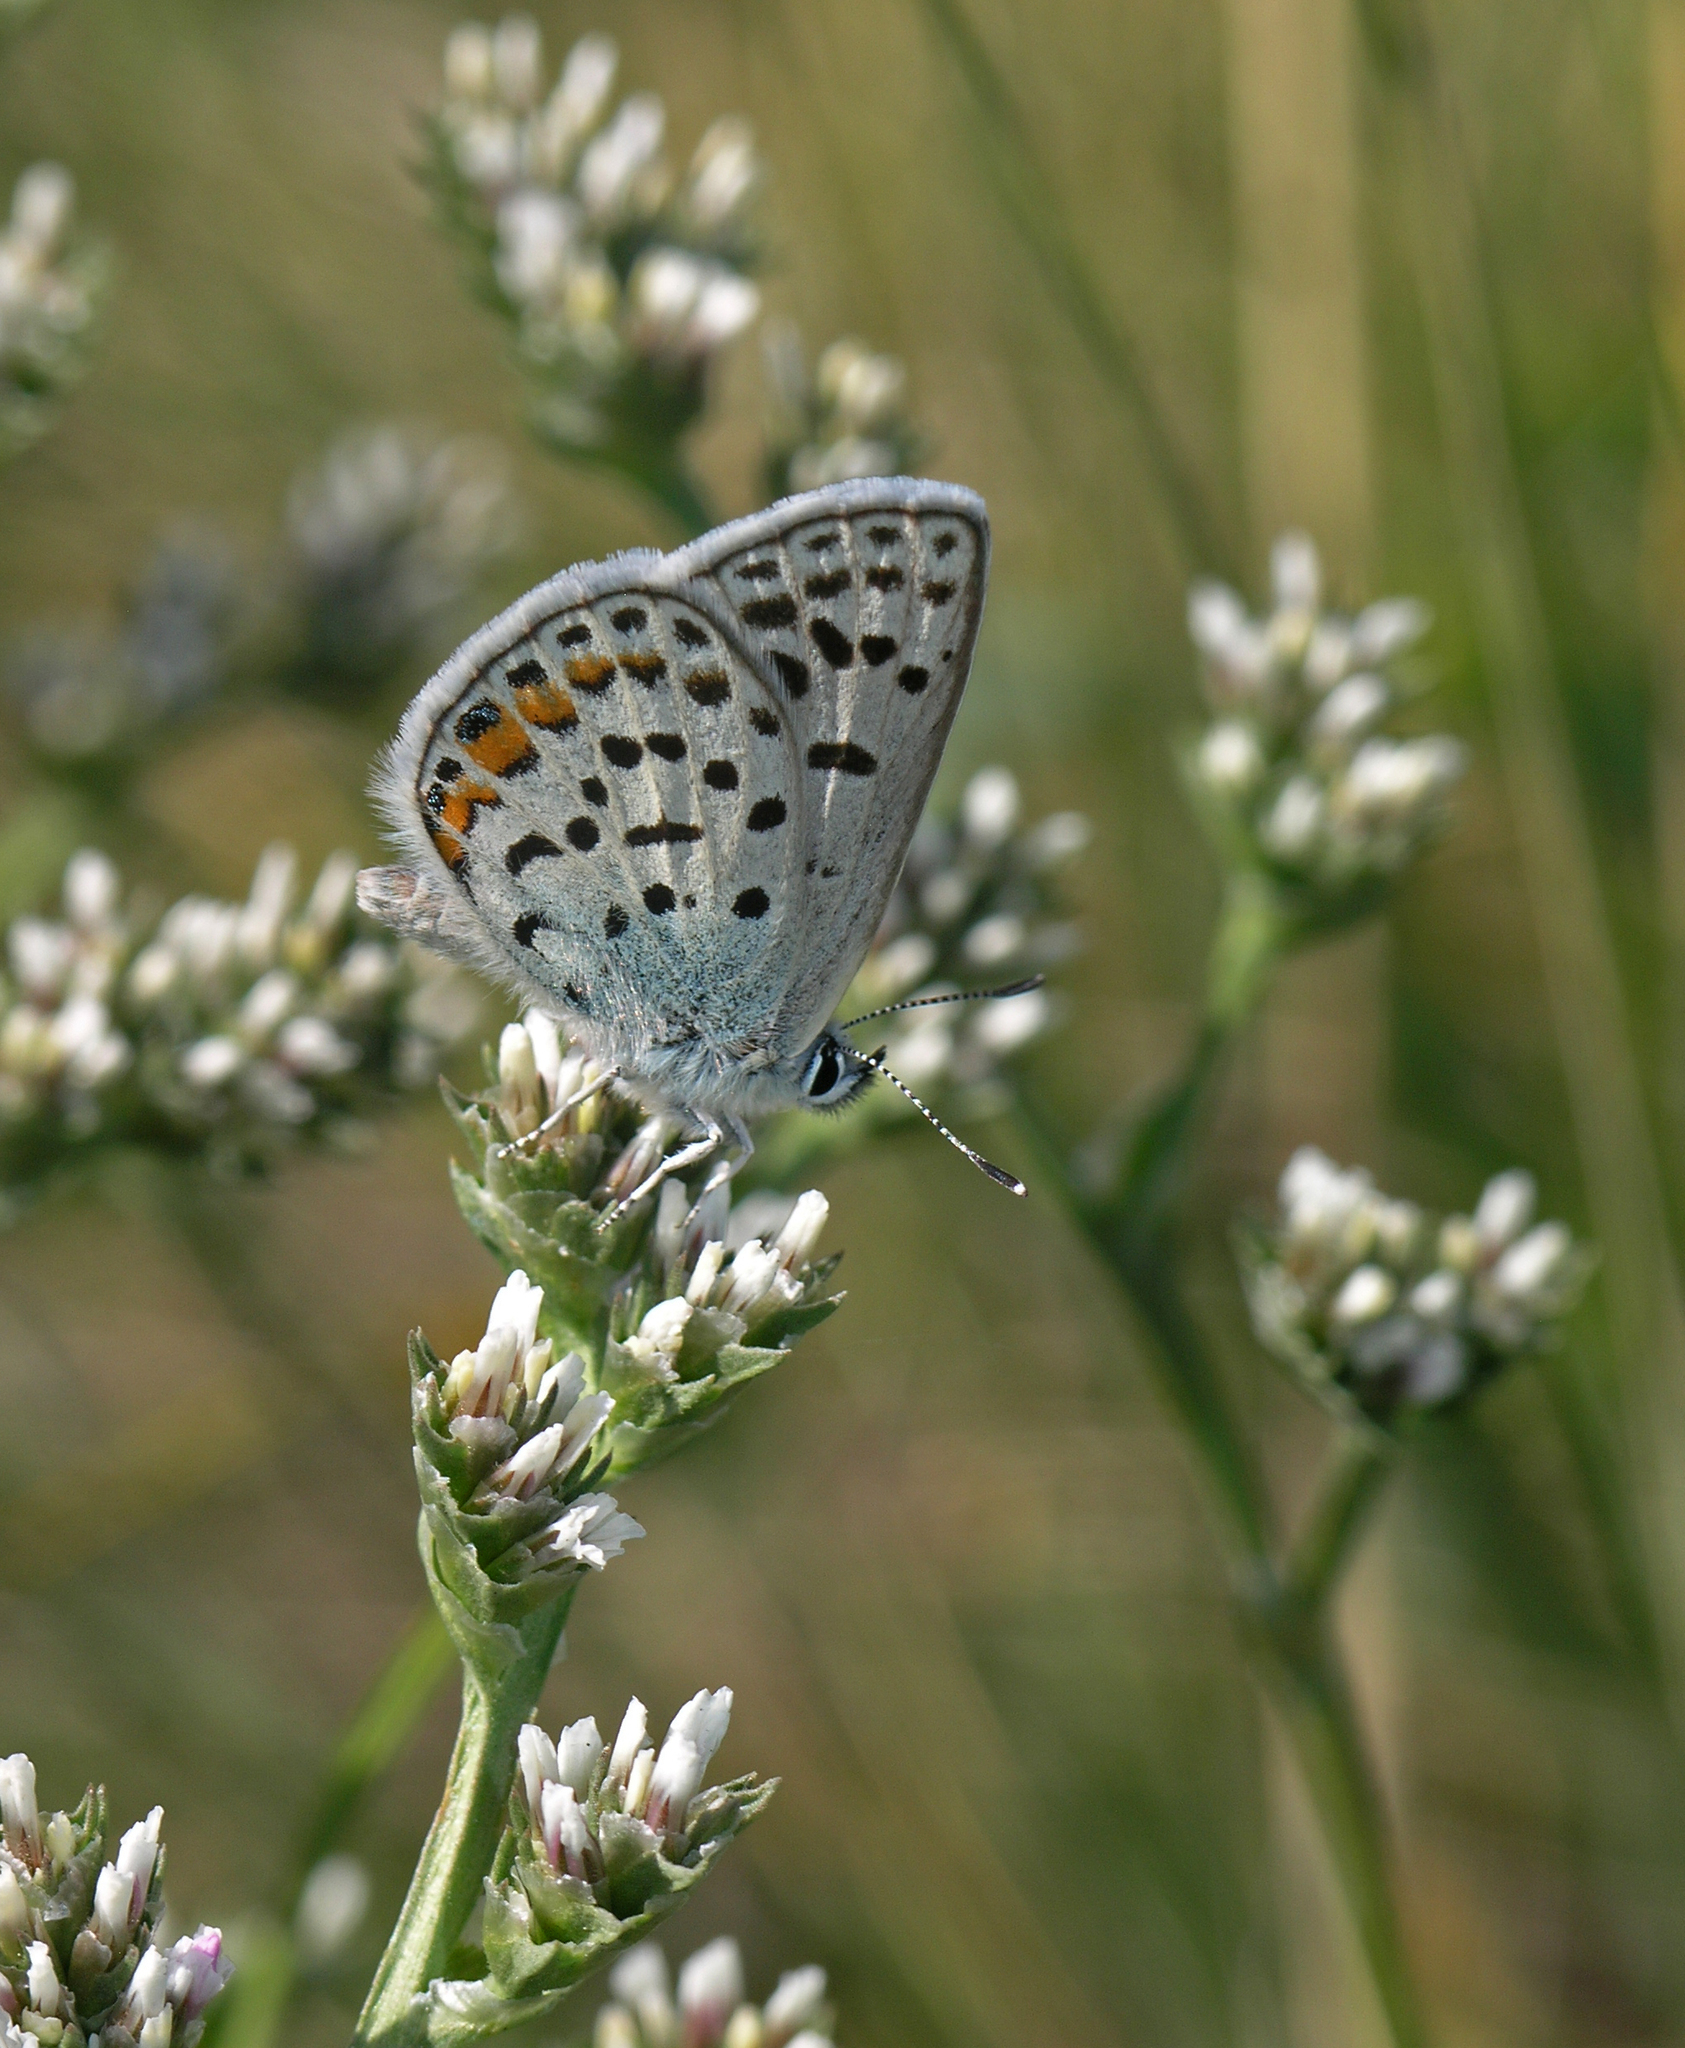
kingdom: Plantae
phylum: Tracheophyta
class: Magnoliopsida
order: Caryophyllales
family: Plumbaginaceae
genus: Goniolimon
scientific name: Goniolimon speciosum
